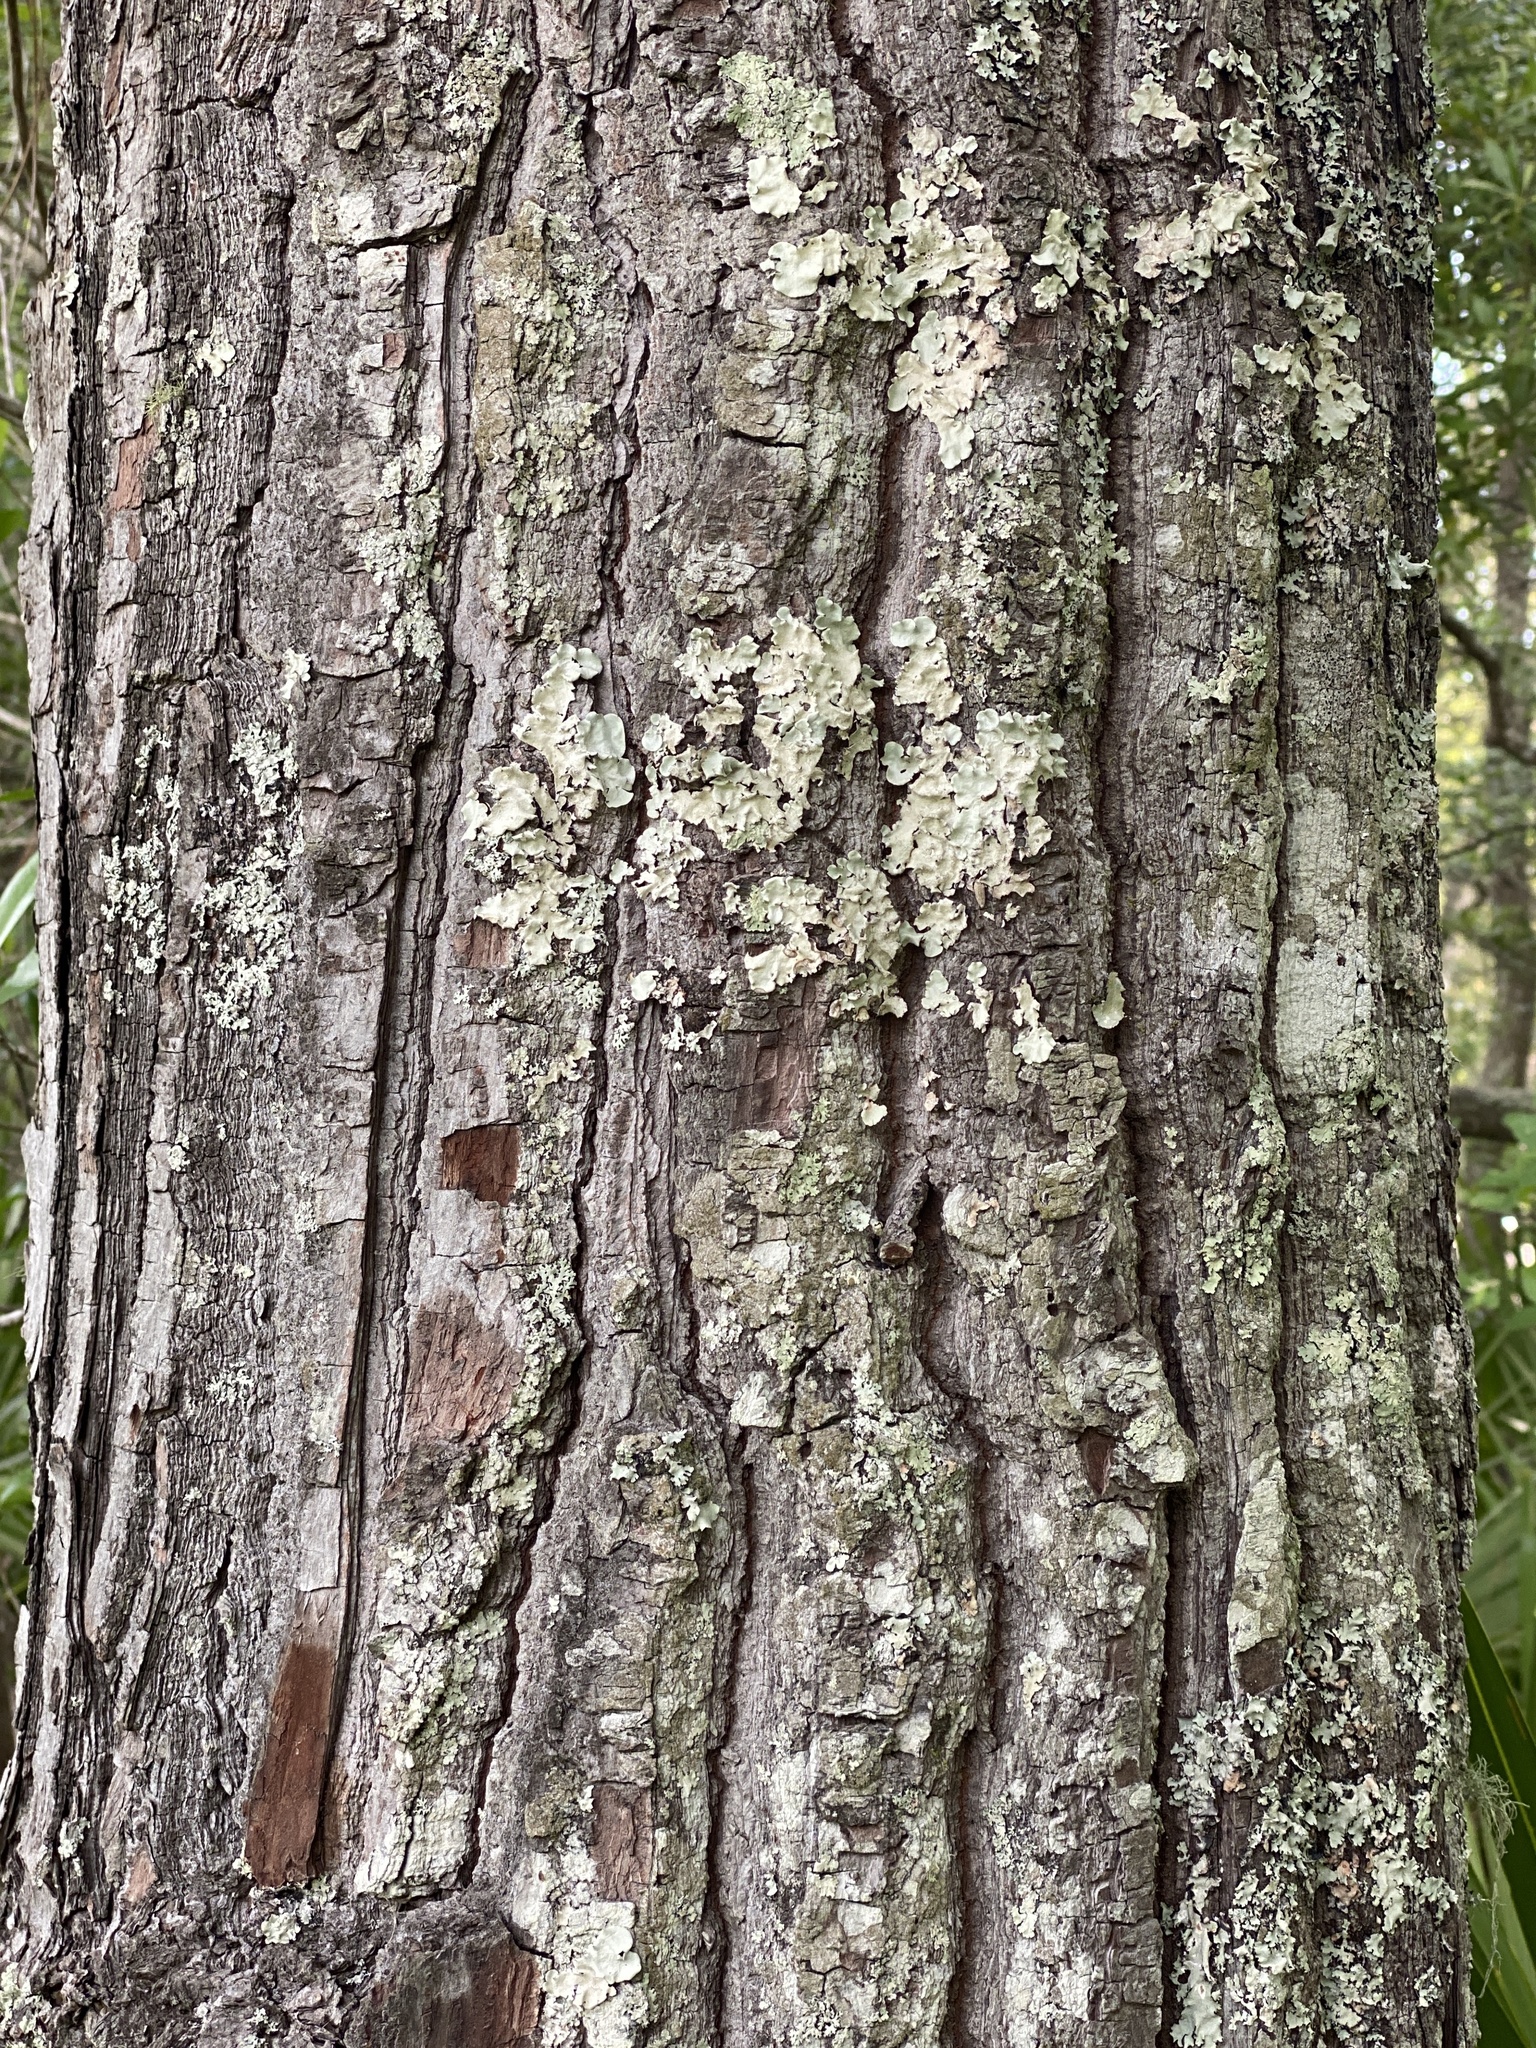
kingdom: Plantae
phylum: Tracheophyta
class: Magnoliopsida
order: Ericales
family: Theaceae
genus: Gordonia
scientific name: Gordonia lasianthus
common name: Loblolly bay
